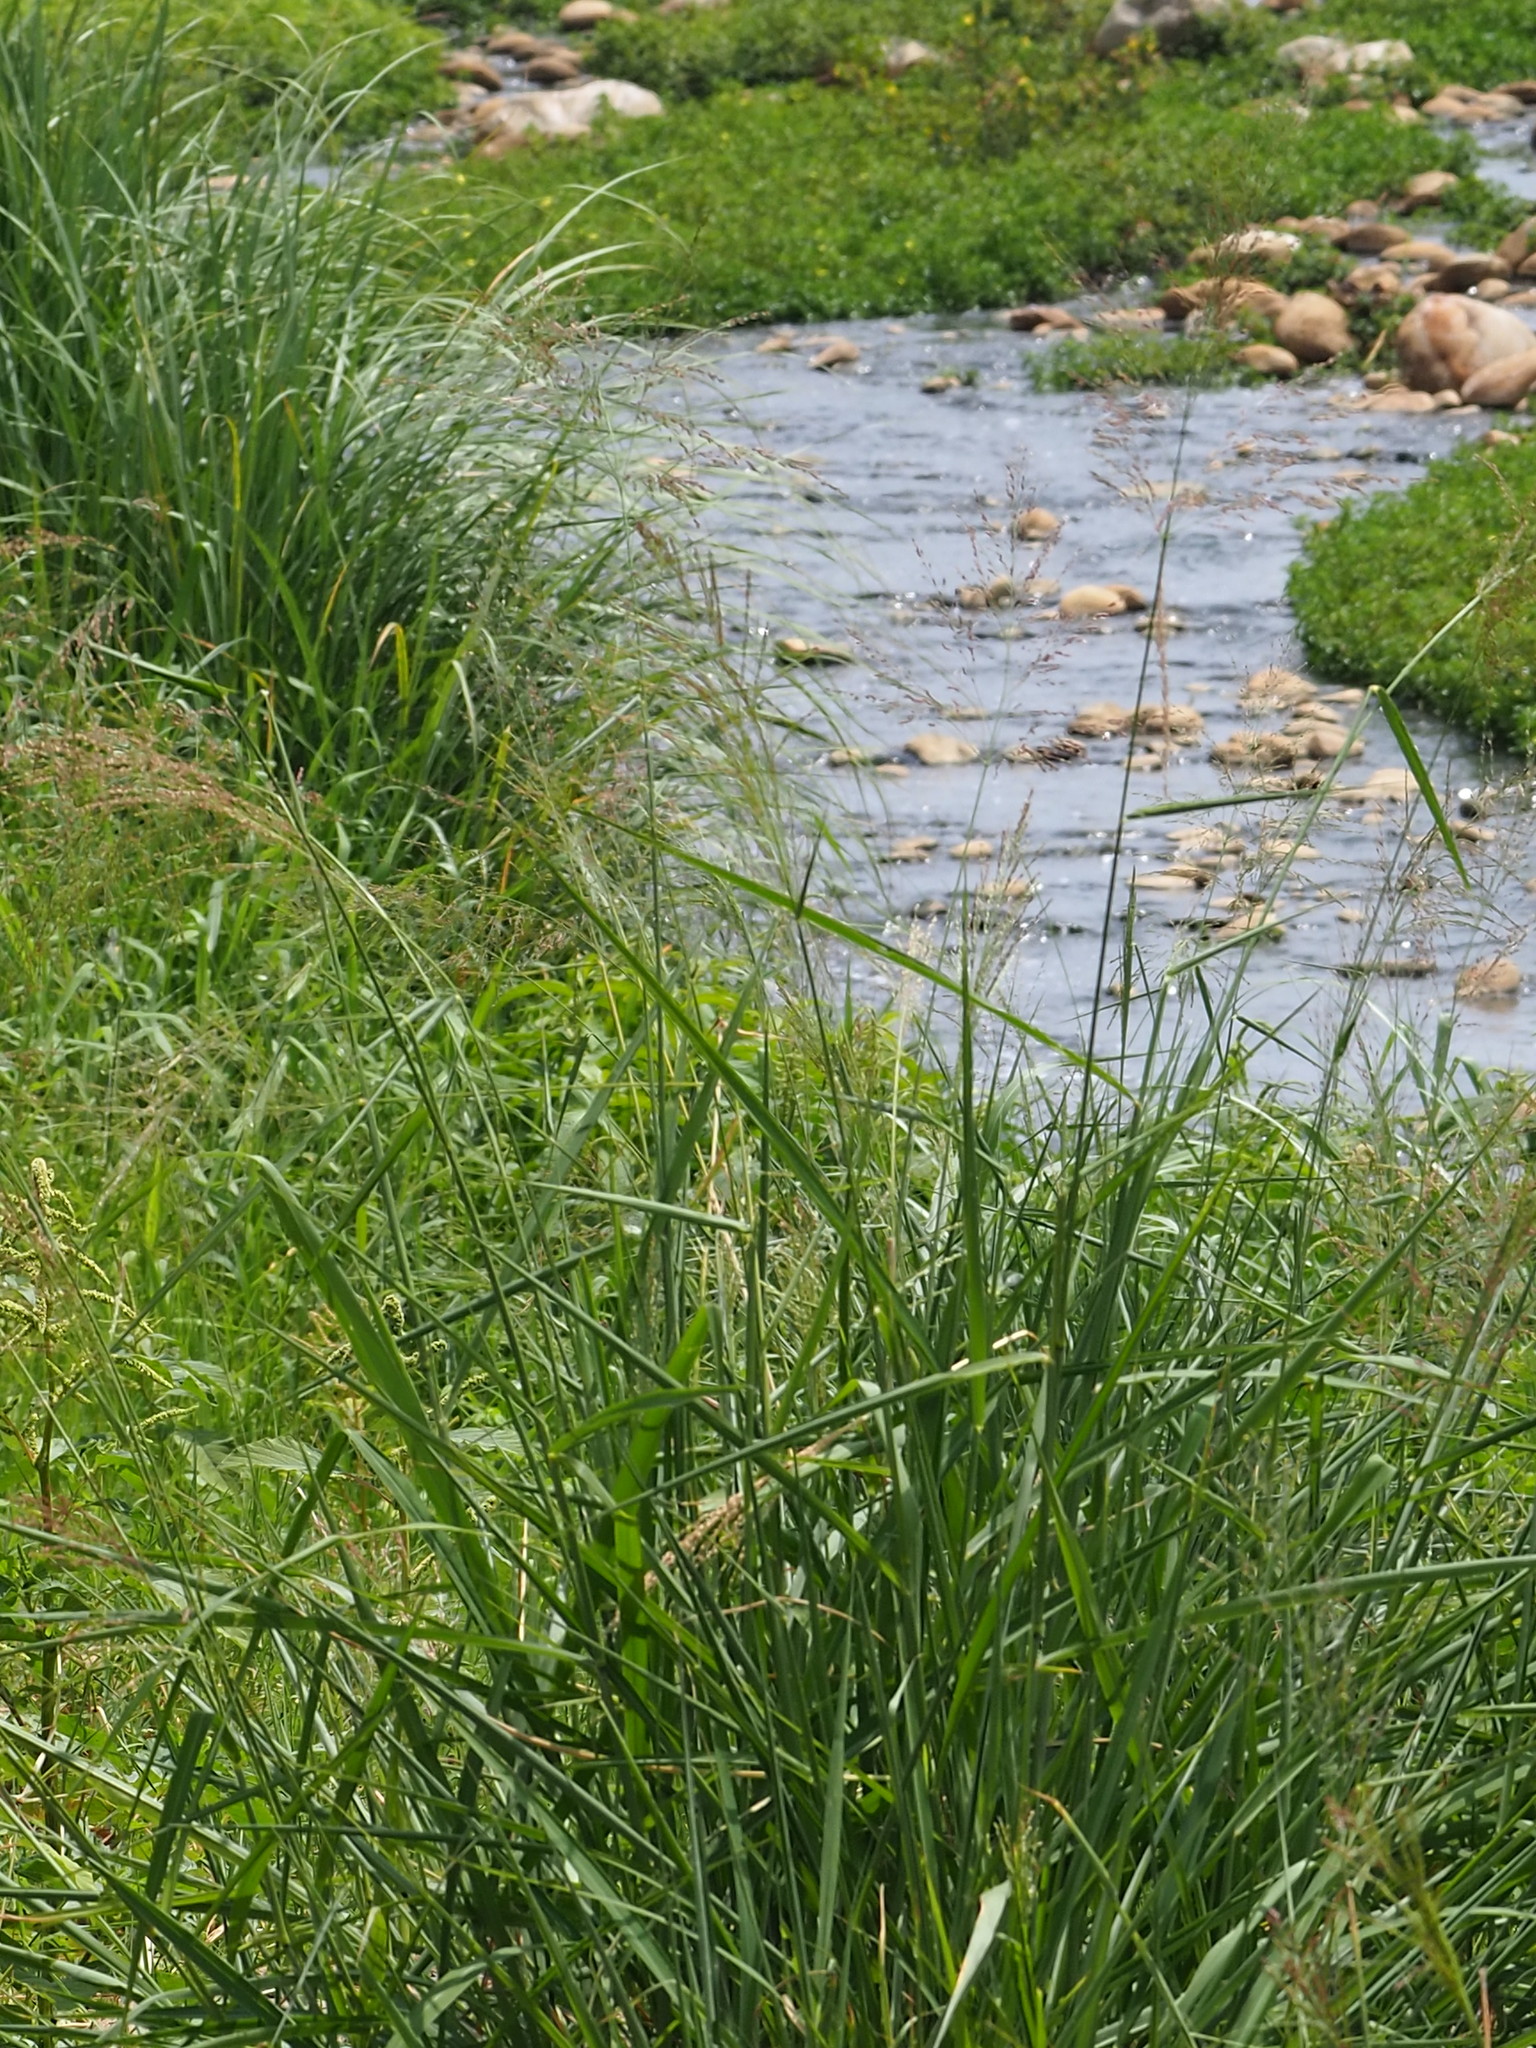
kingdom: Plantae
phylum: Tracheophyta
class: Liliopsida
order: Poales
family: Poaceae
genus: Megathyrsus
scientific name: Megathyrsus maximus
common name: Guineagrass
